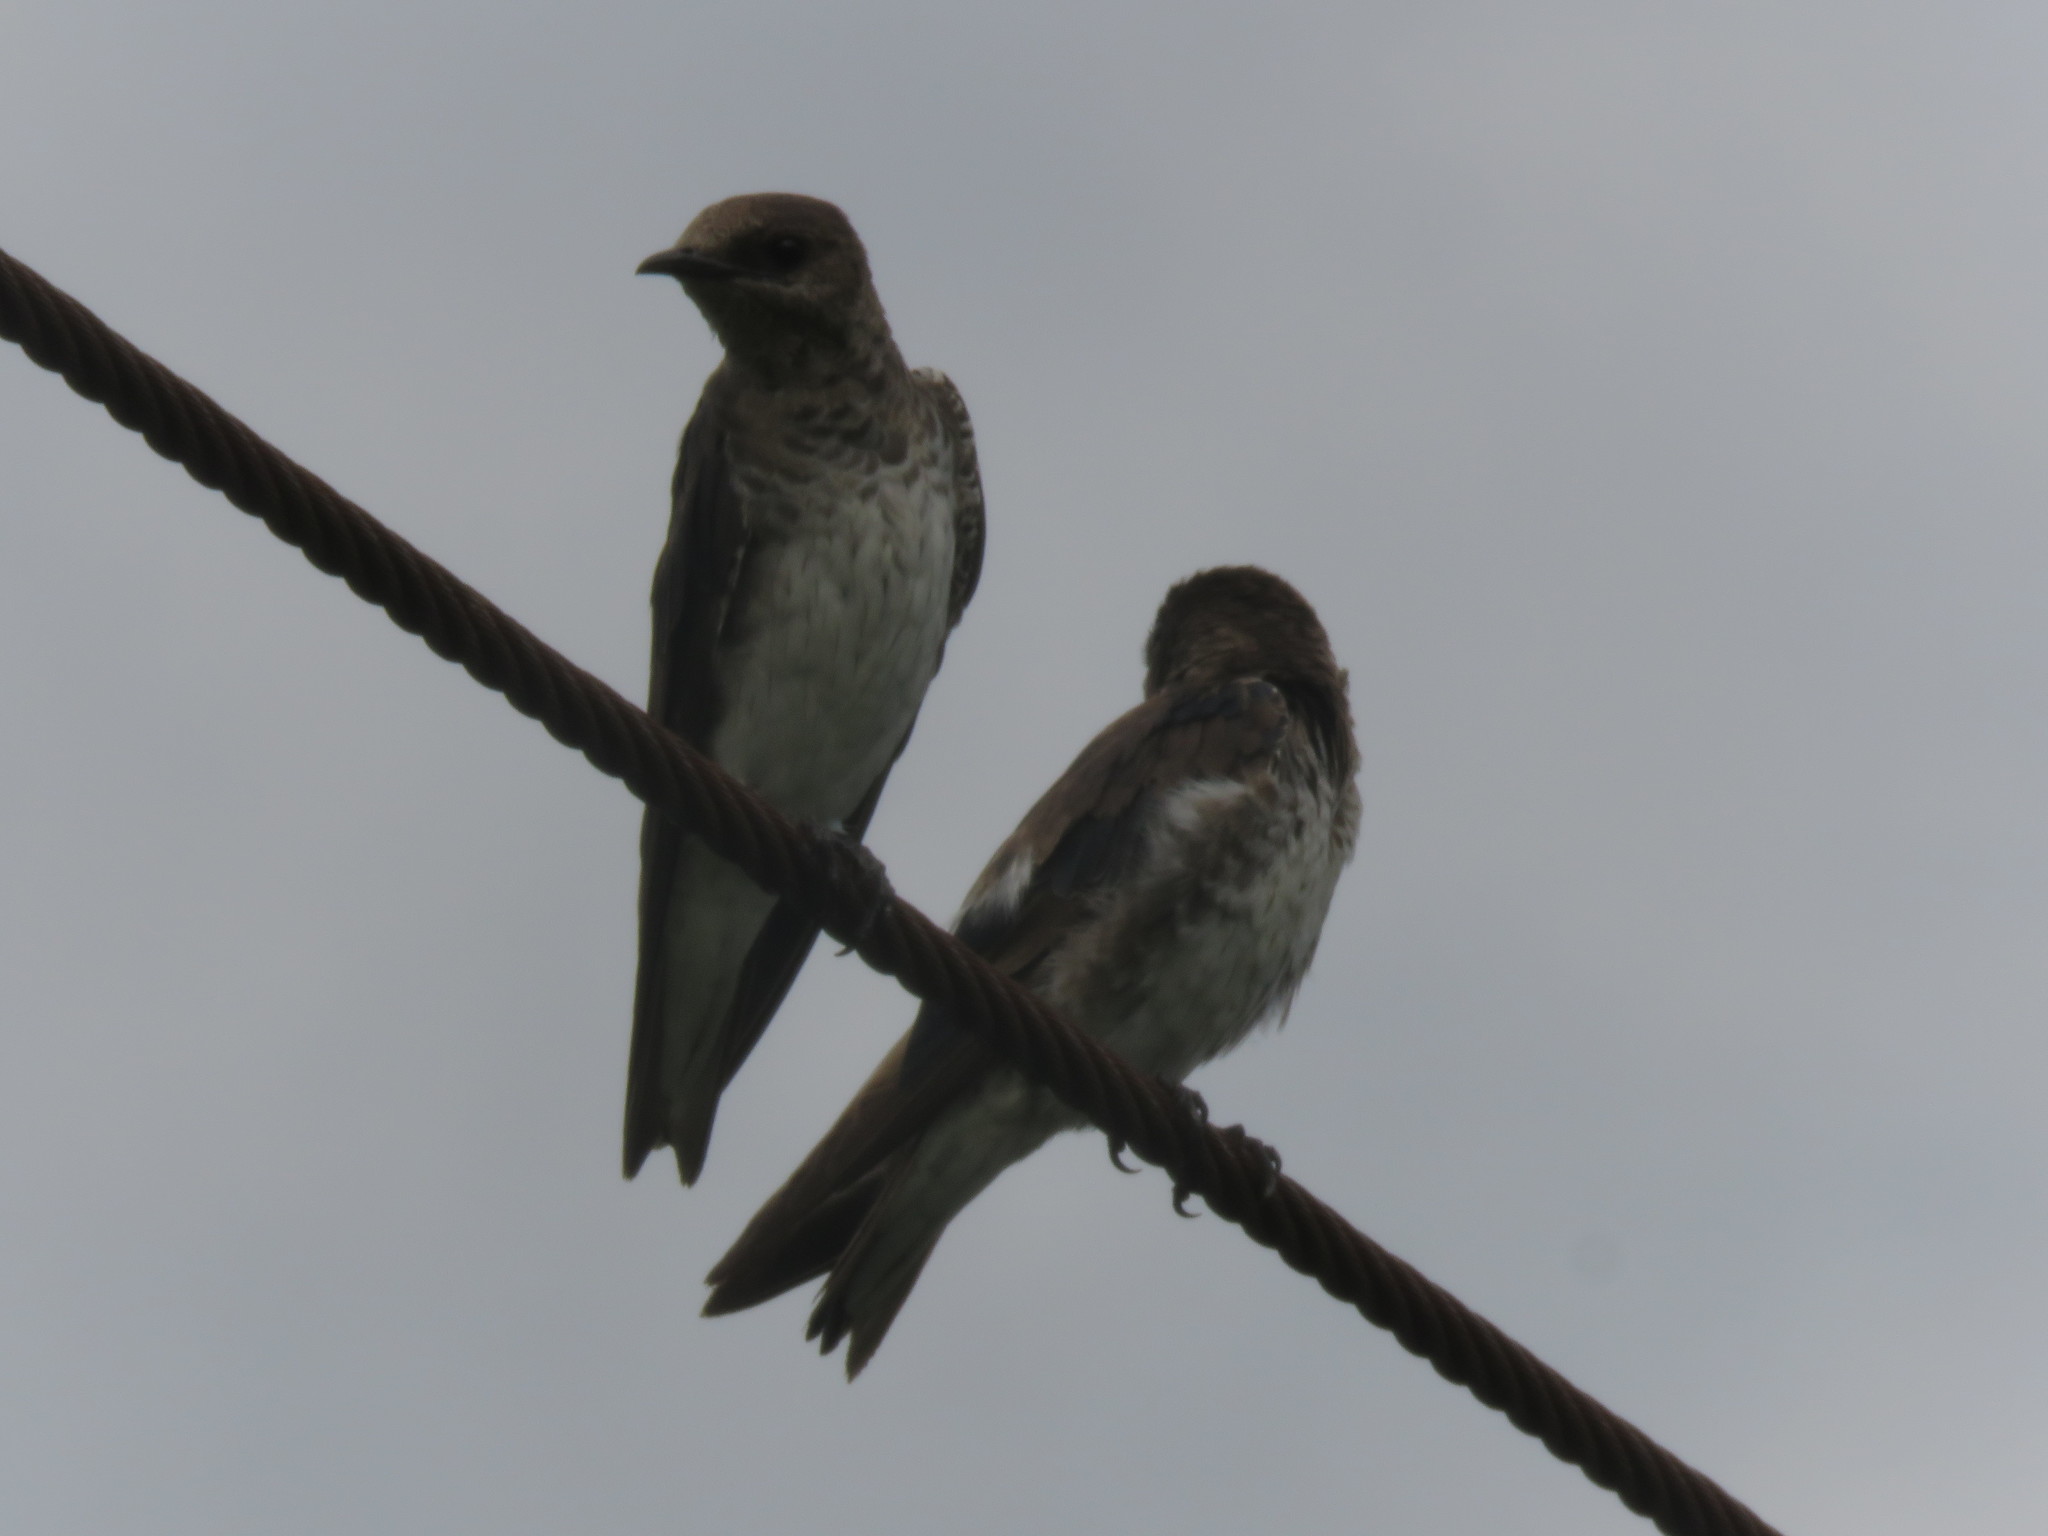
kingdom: Animalia
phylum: Chordata
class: Aves
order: Passeriformes
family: Hirundinidae
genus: Progne
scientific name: Progne chalybea
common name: Grey-breasted martin
